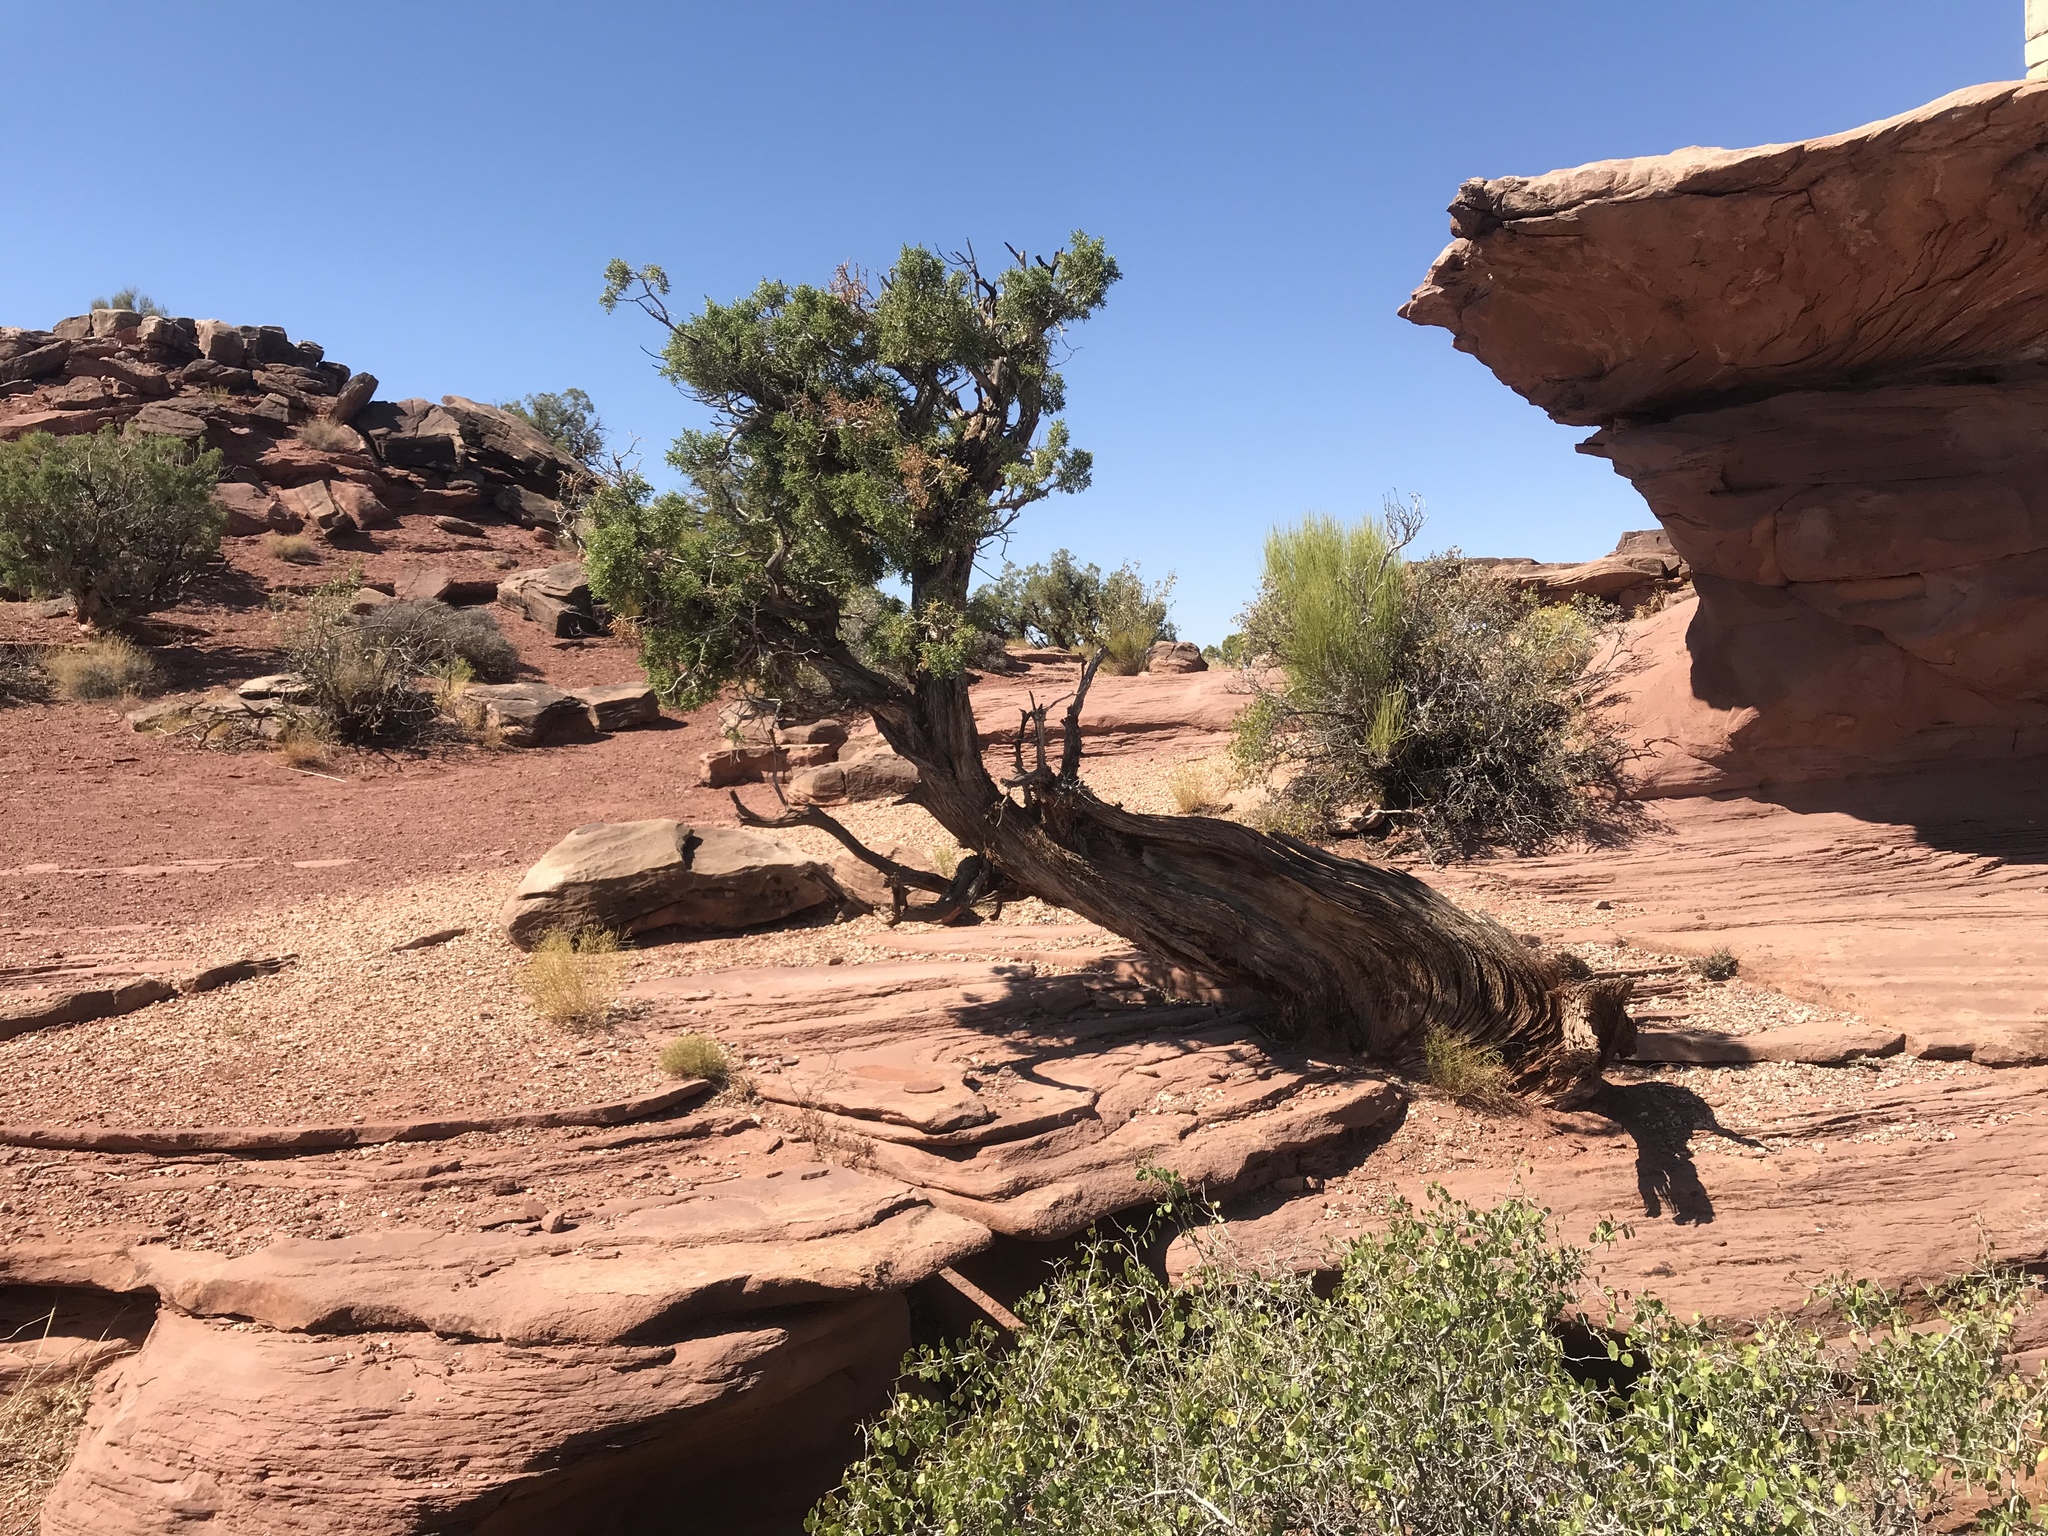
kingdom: Plantae
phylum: Tracheophyta
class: Pinopsida
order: Pinales
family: Cupressaceae
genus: Juniperus
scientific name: Juniperus osteosperma
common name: Utah juniper
